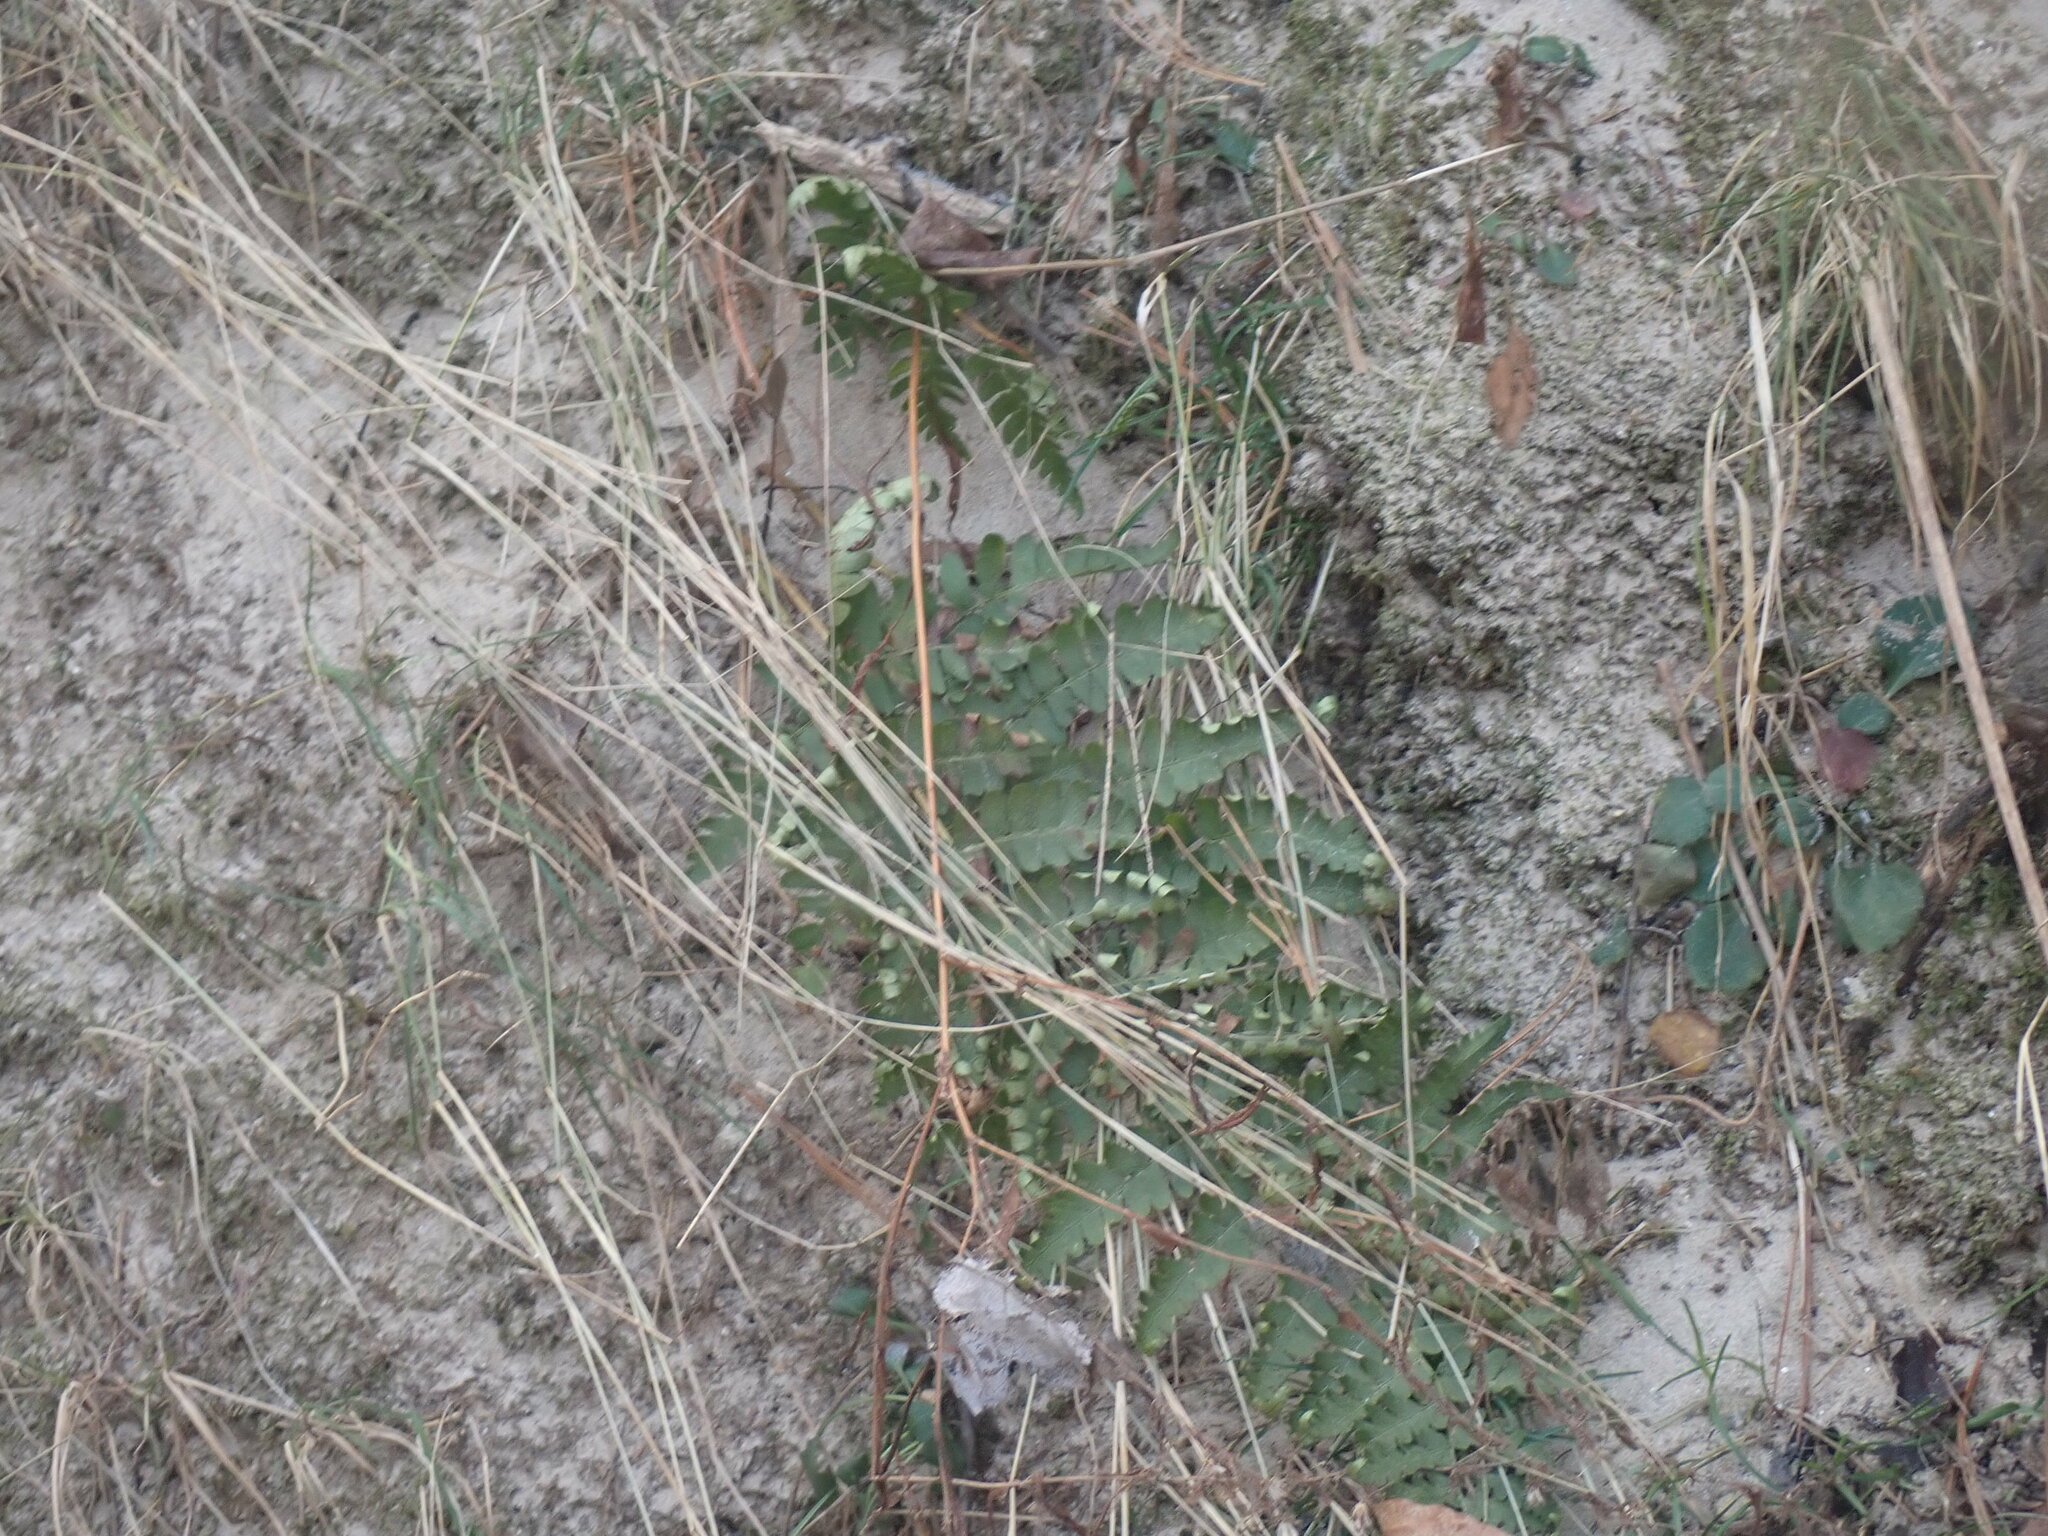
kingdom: Plantae
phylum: Tracheophyta
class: Polypodiopsida
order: Polypodiales
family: Dryopteridaceae
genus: Dryopteris
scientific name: Dryopteris marginalis
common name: Marginal wood fern
